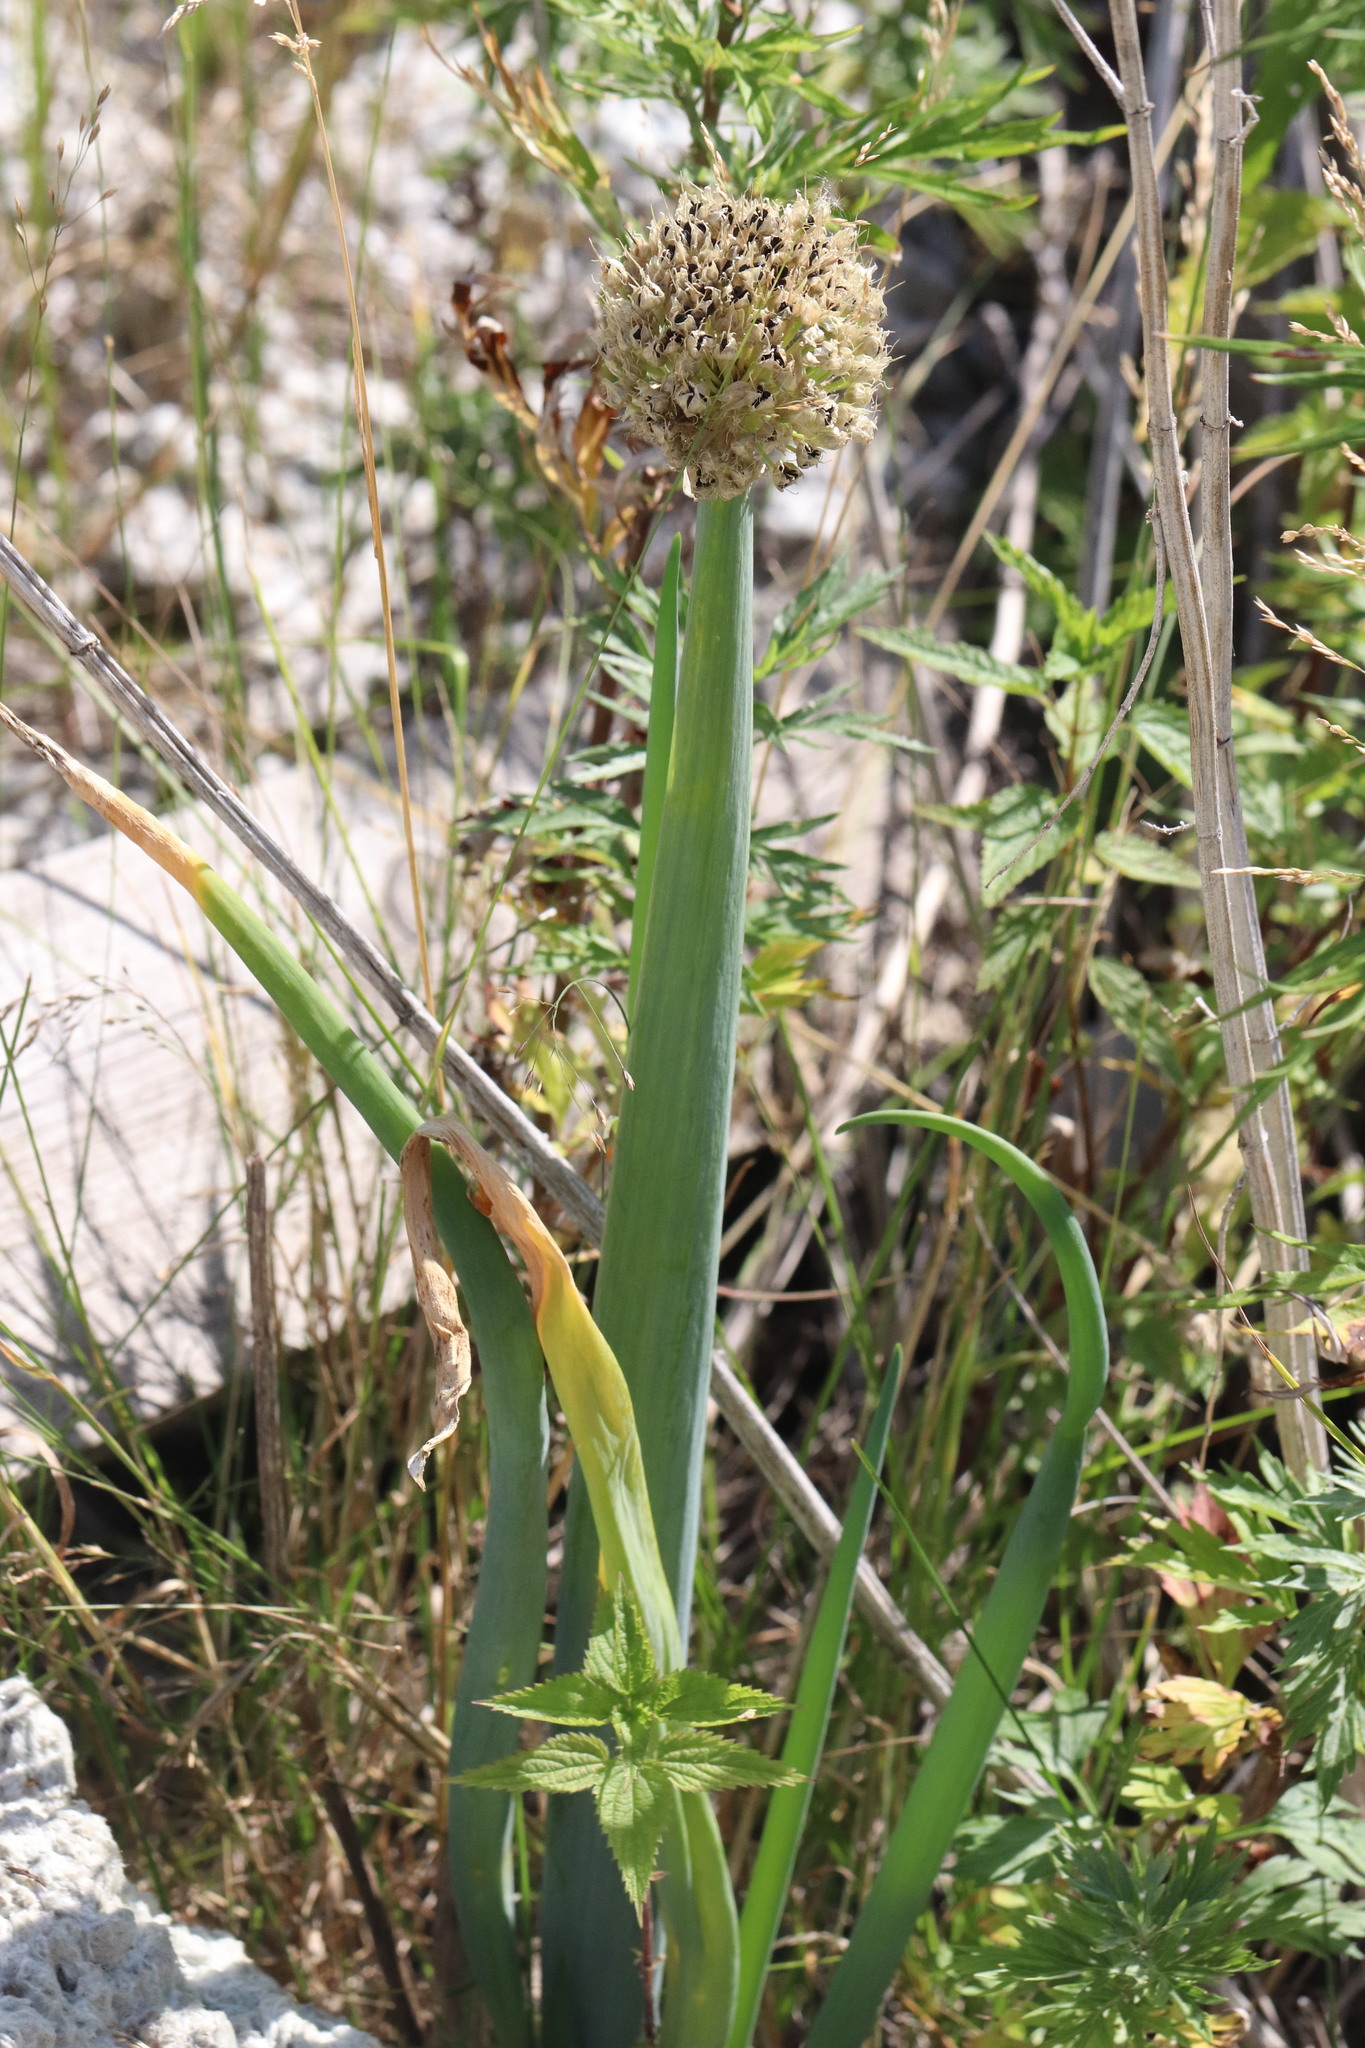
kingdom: Plantae
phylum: Tracheophyta
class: Liliopsida
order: Asparagales
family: Amaryllidaceae
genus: Allium
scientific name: Allium cepa
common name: Onion
